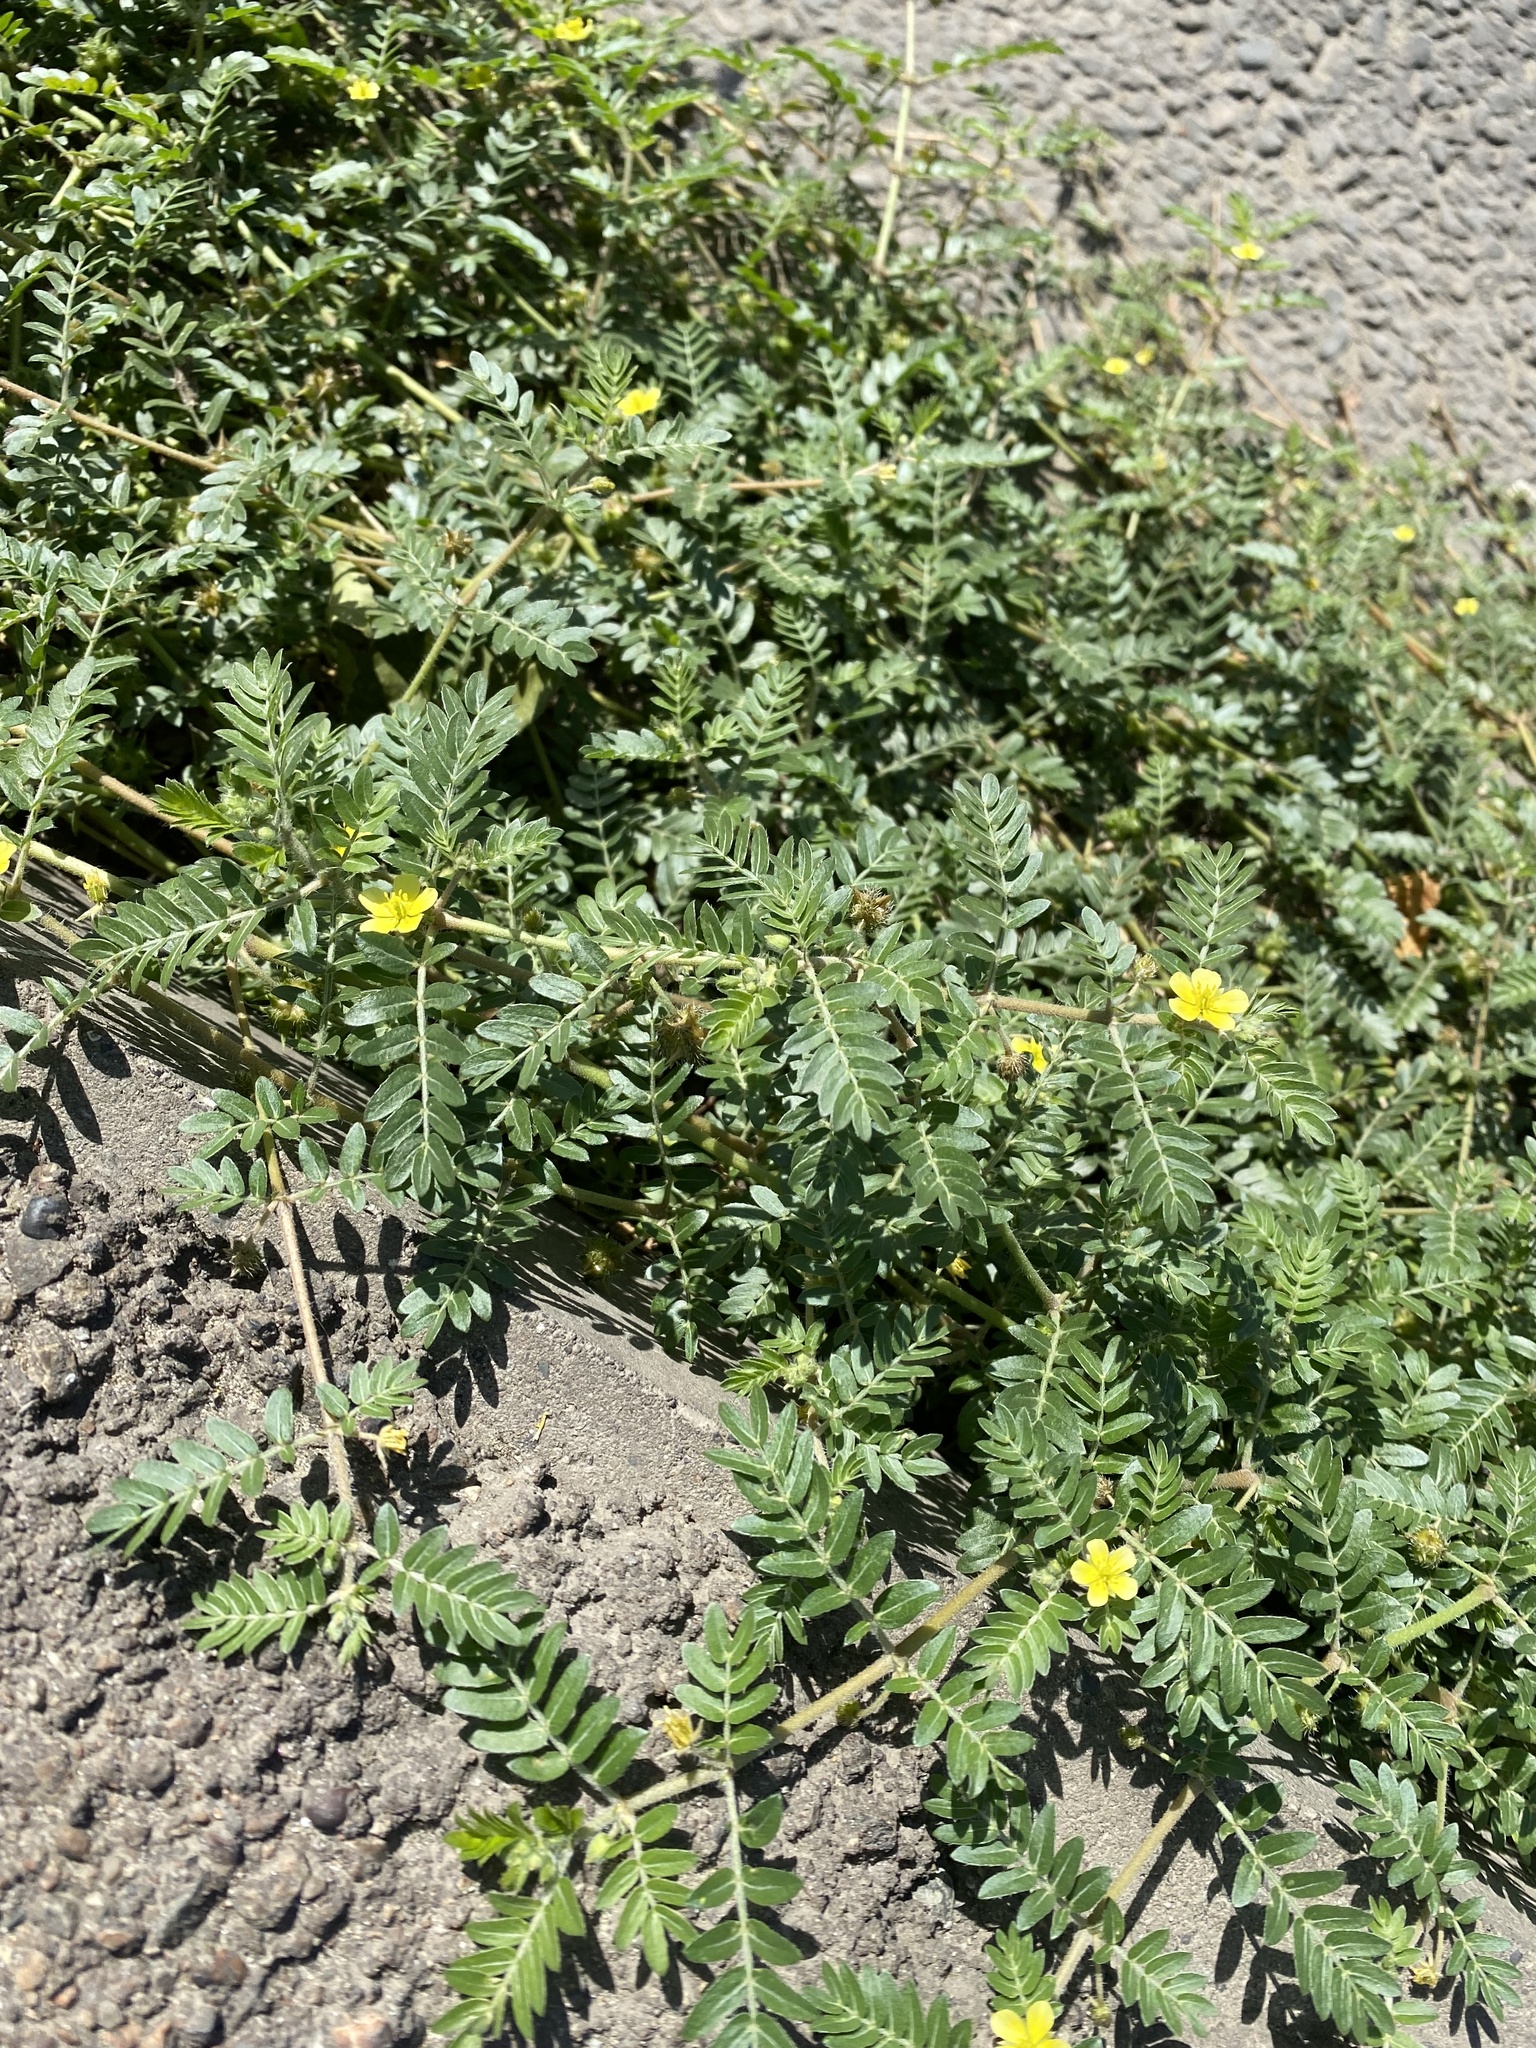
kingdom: Plantae
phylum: Tracheophyta
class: Magnoliopsida
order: Zygophyllales
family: Zygophyllaceae
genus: Tribulus
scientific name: Tribulus terrestris
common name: Puncturevine
